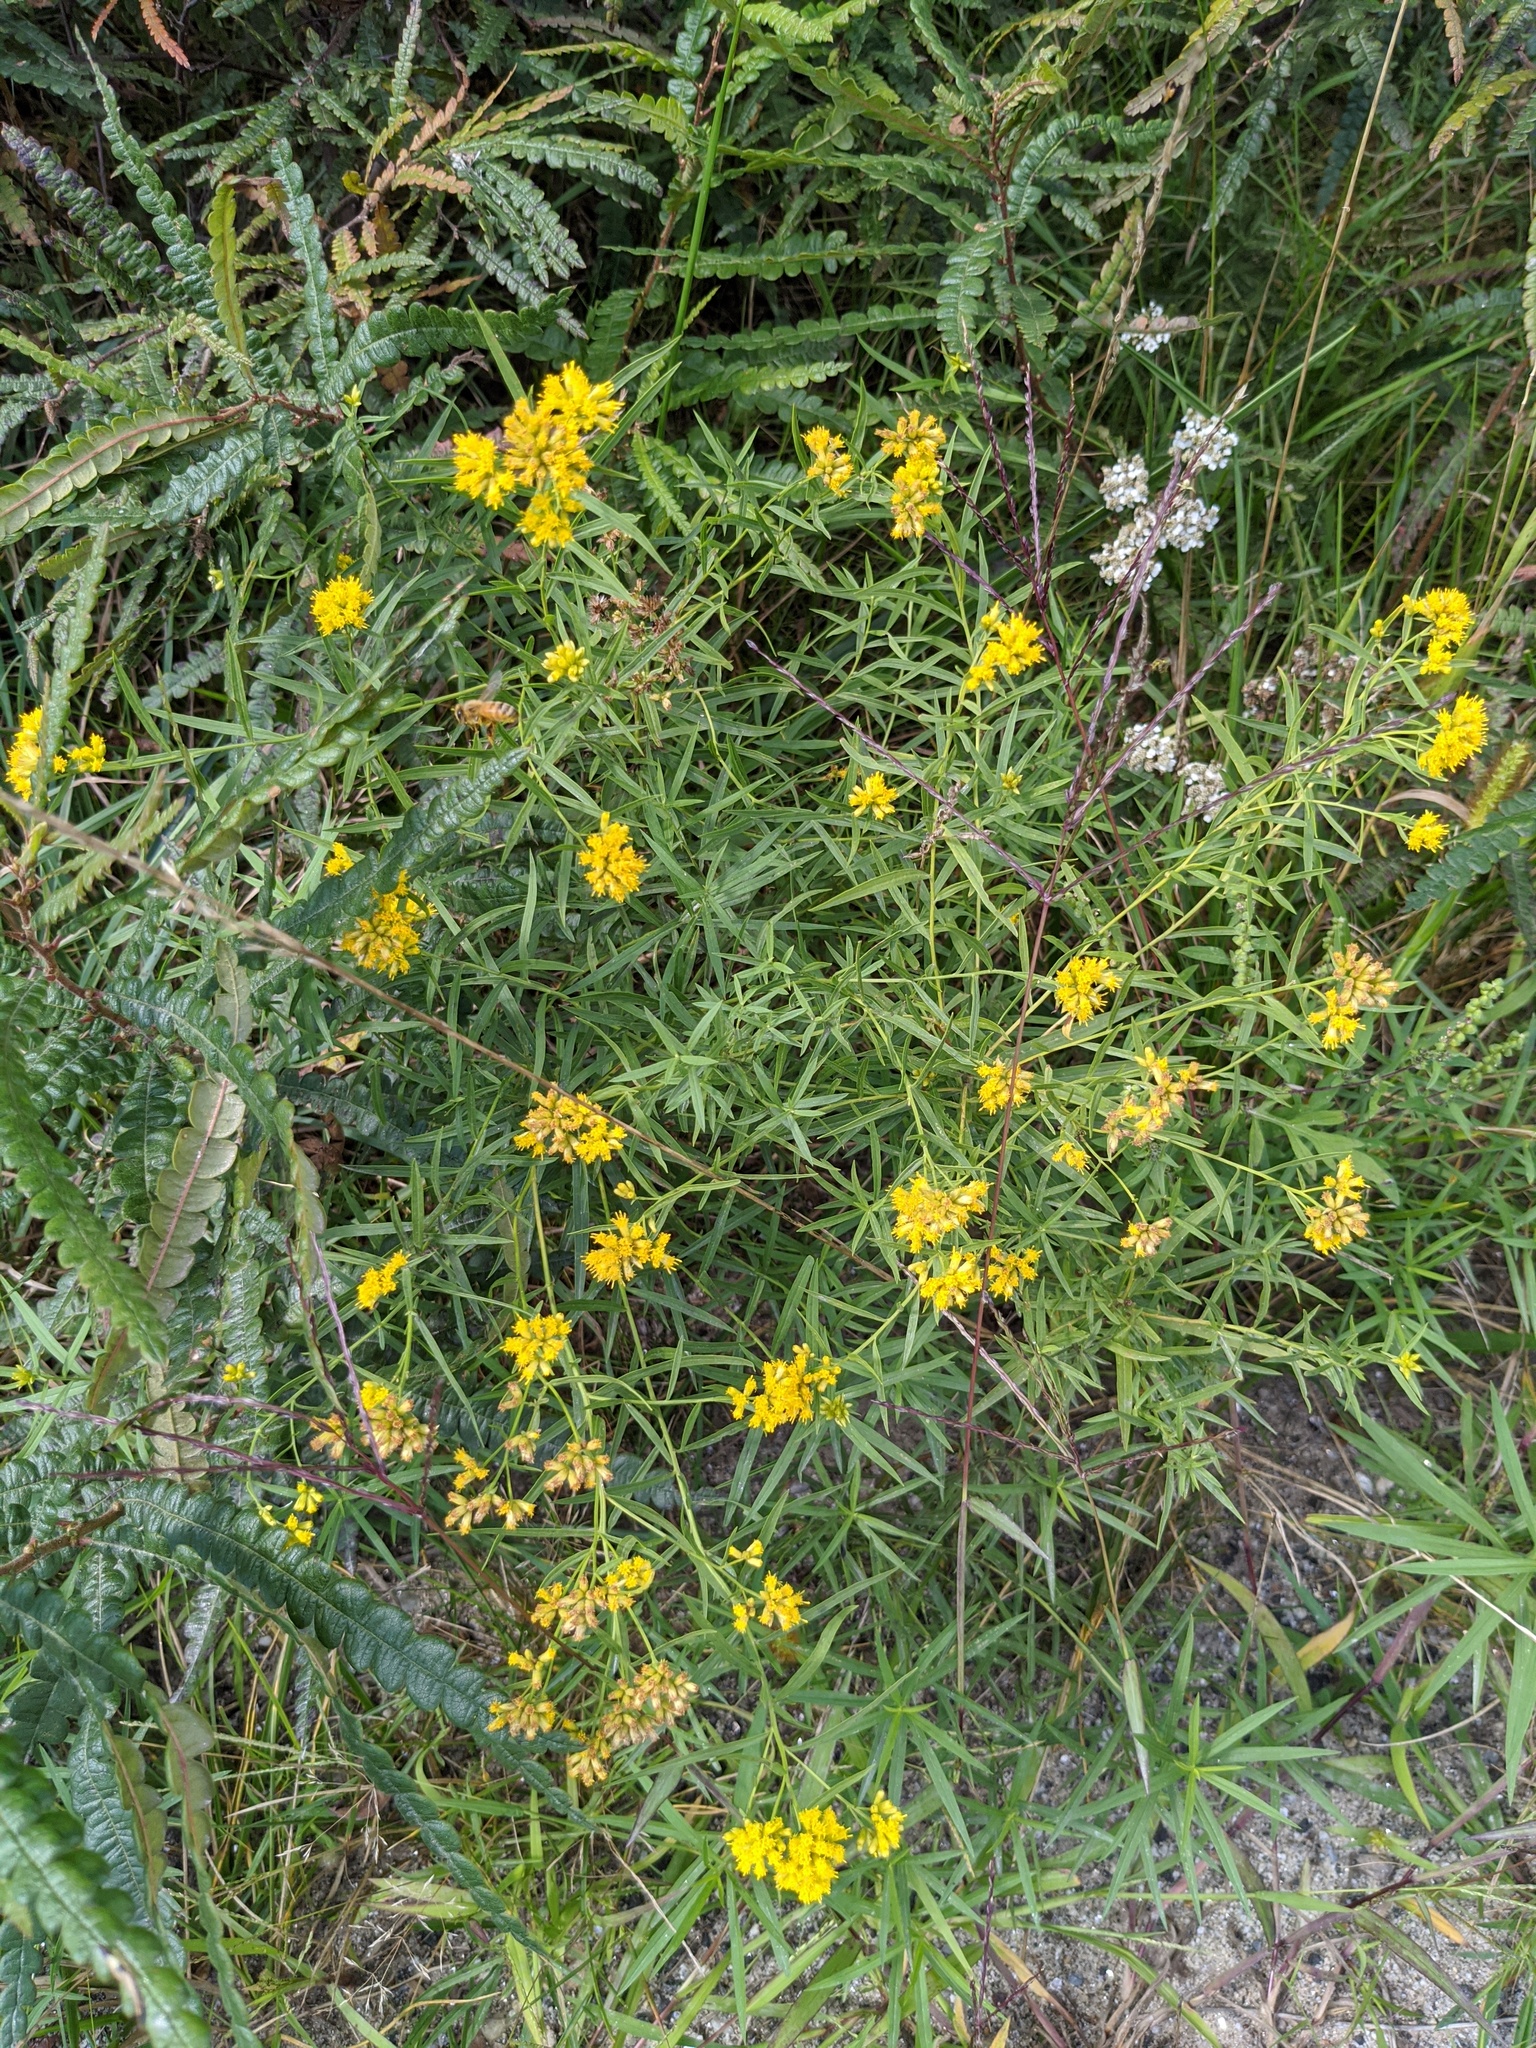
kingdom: Plantae
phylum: Tracheophyta
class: Magnoliopsida
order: Fagales
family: Myricaceae
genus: Comptonia
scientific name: Comptonia peregrina
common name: Sweet-fern
